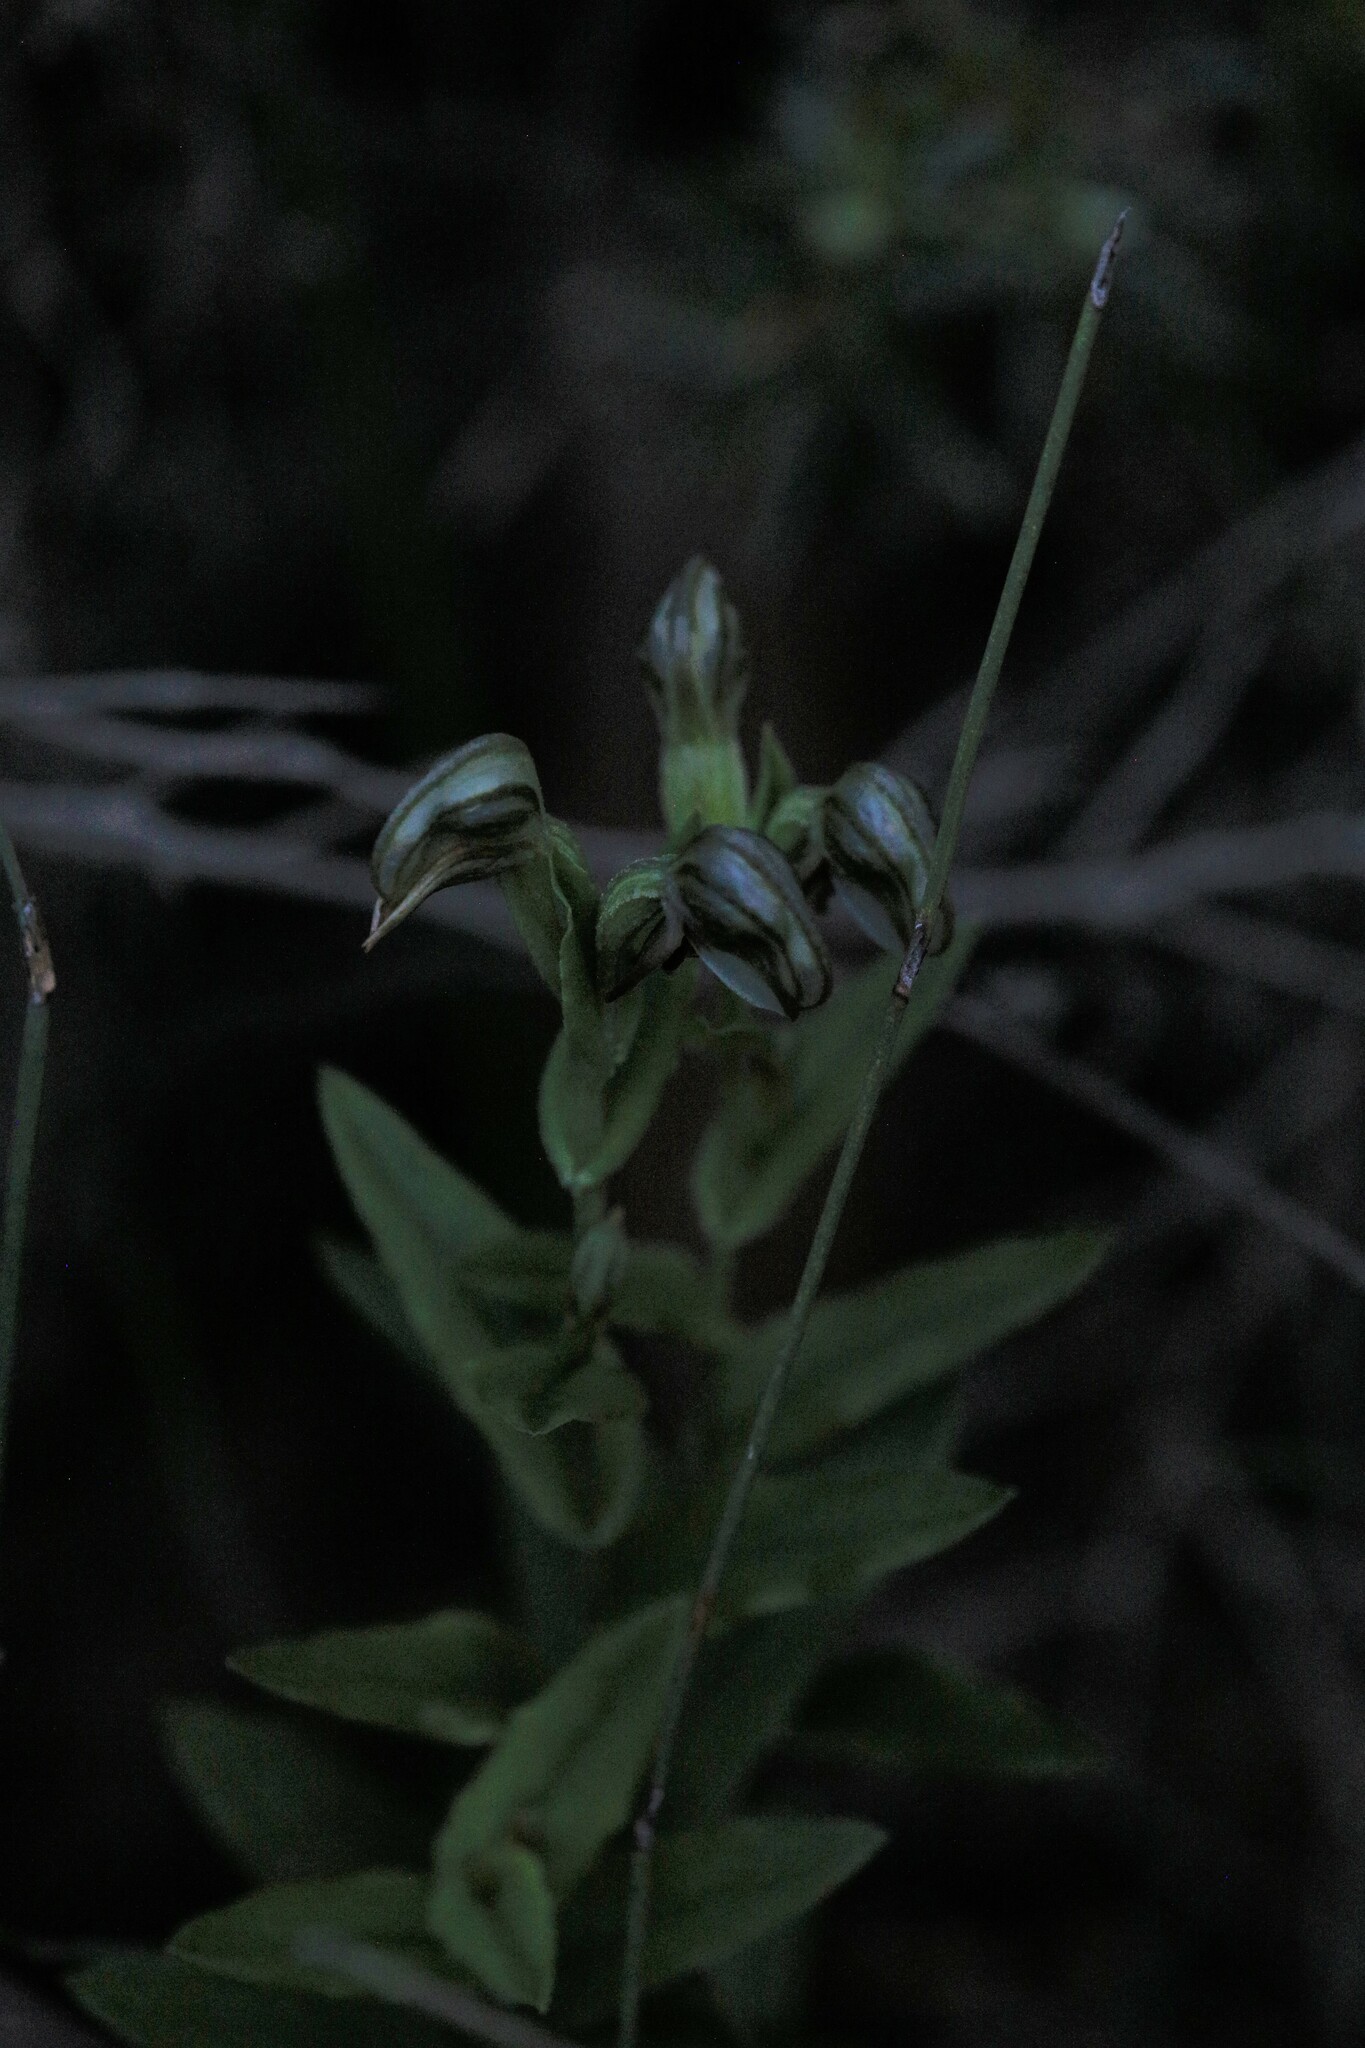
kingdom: Plantae
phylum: Tracheophyta
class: Liliopsida
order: Asparagales
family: Orchidaceae
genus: Pterostylis
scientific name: Pterostylis vittata
